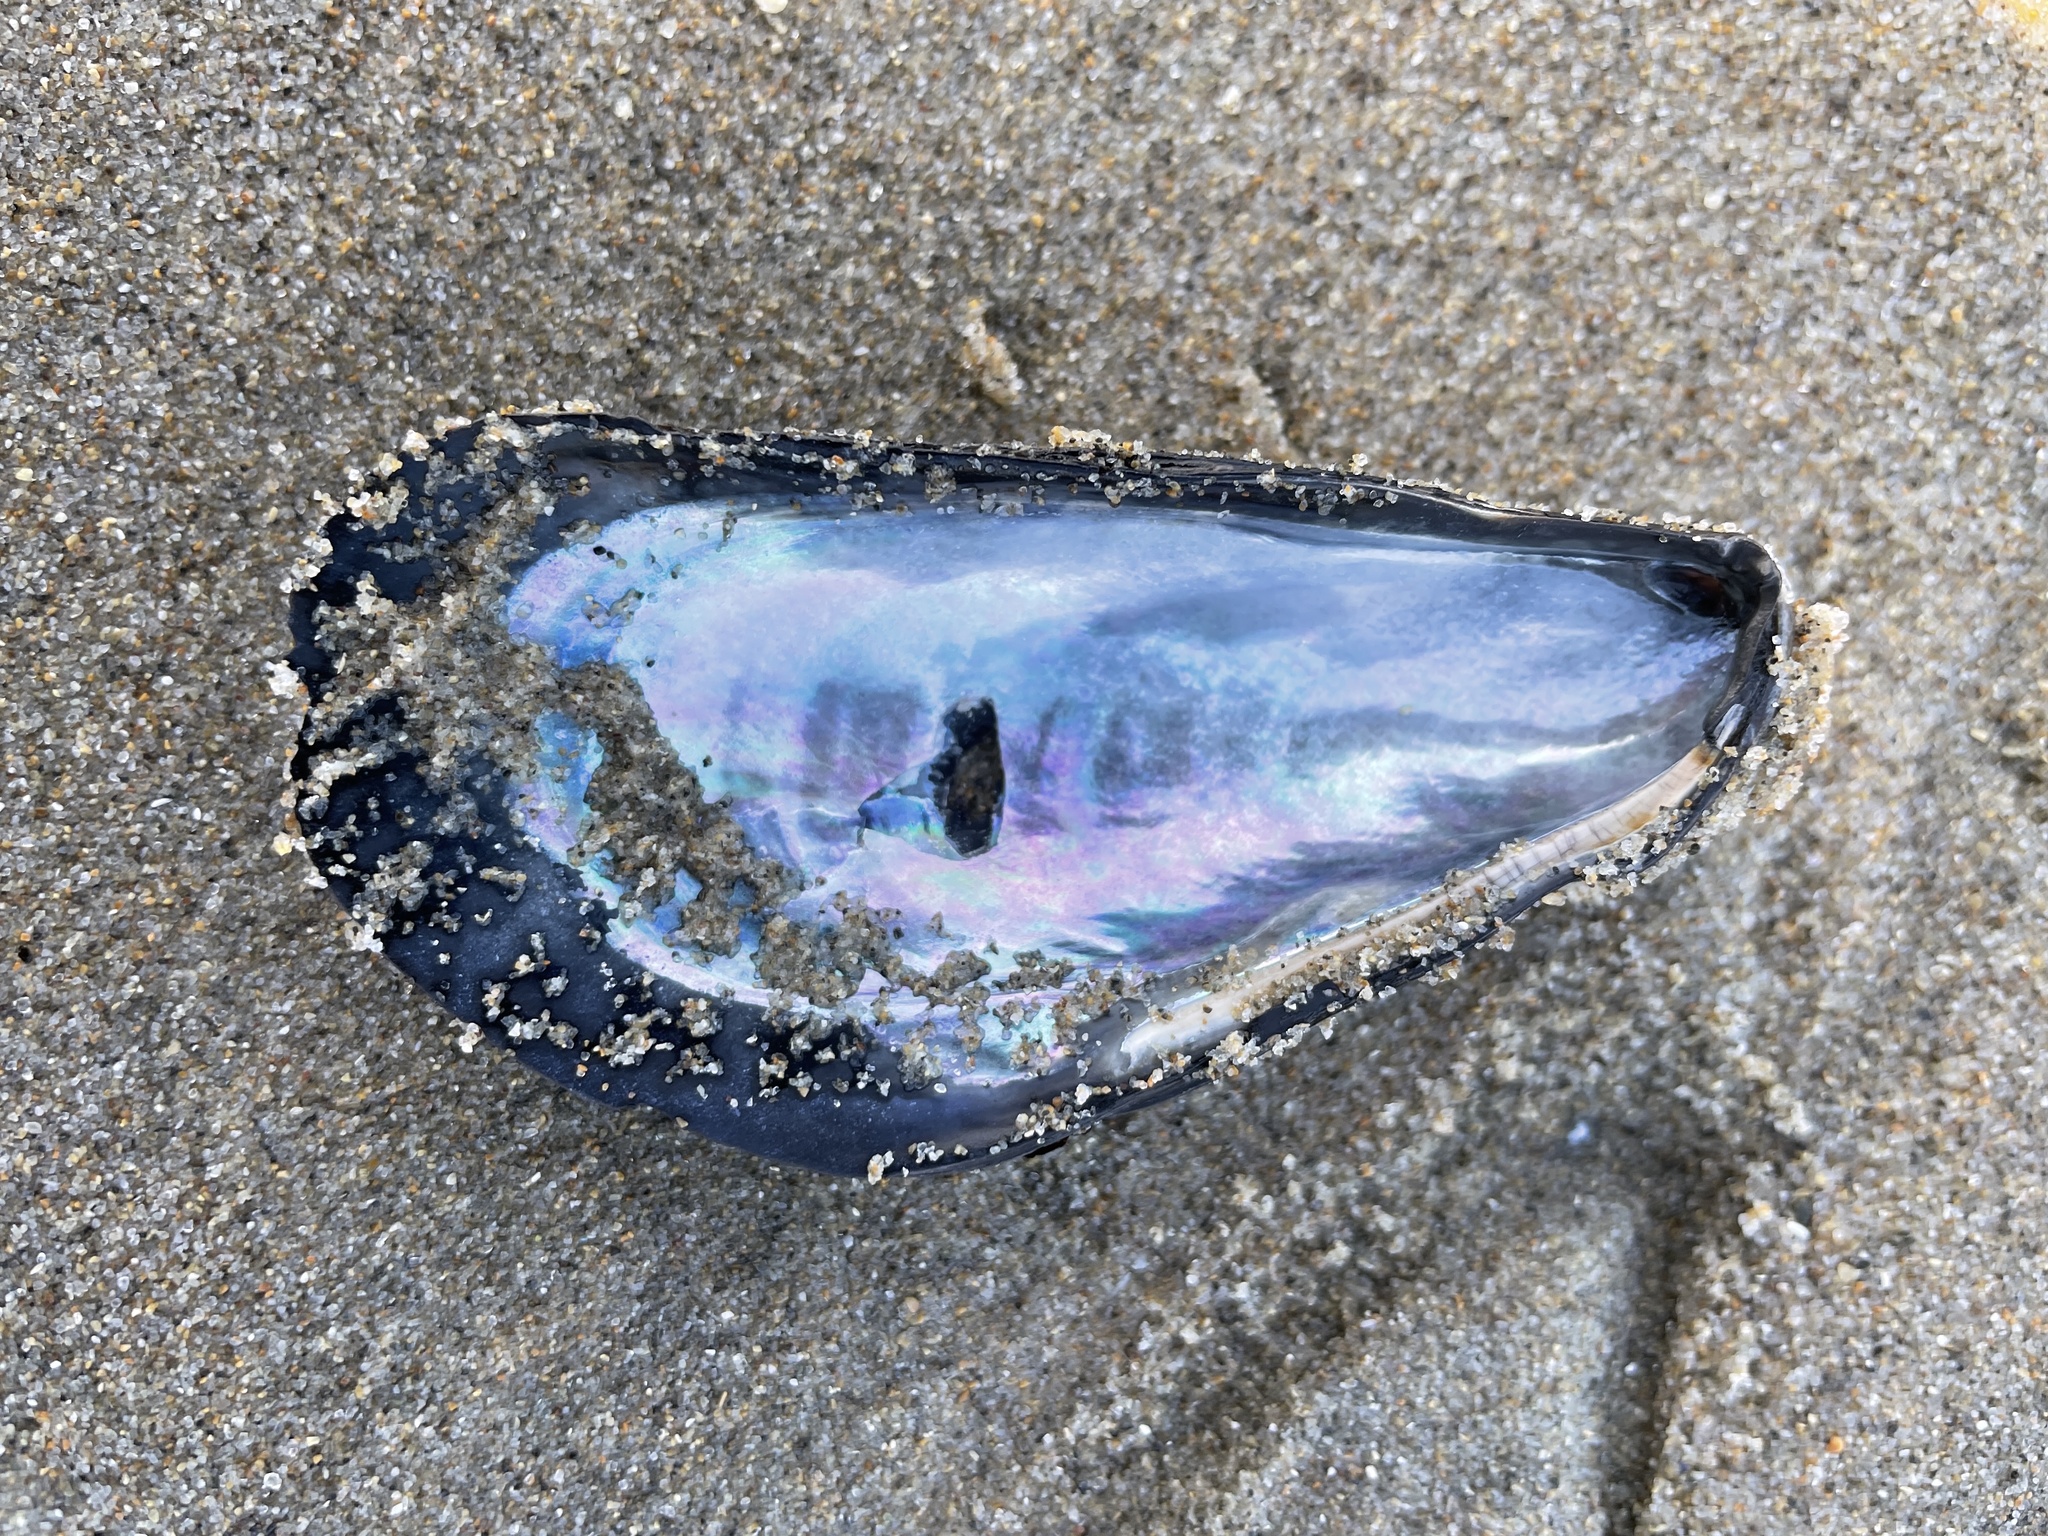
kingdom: Animalia
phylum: Mollusca
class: Bivalvia
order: Mytilida
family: Mytilidae
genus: Mytilus
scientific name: Mytilus californianus
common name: California mussel
